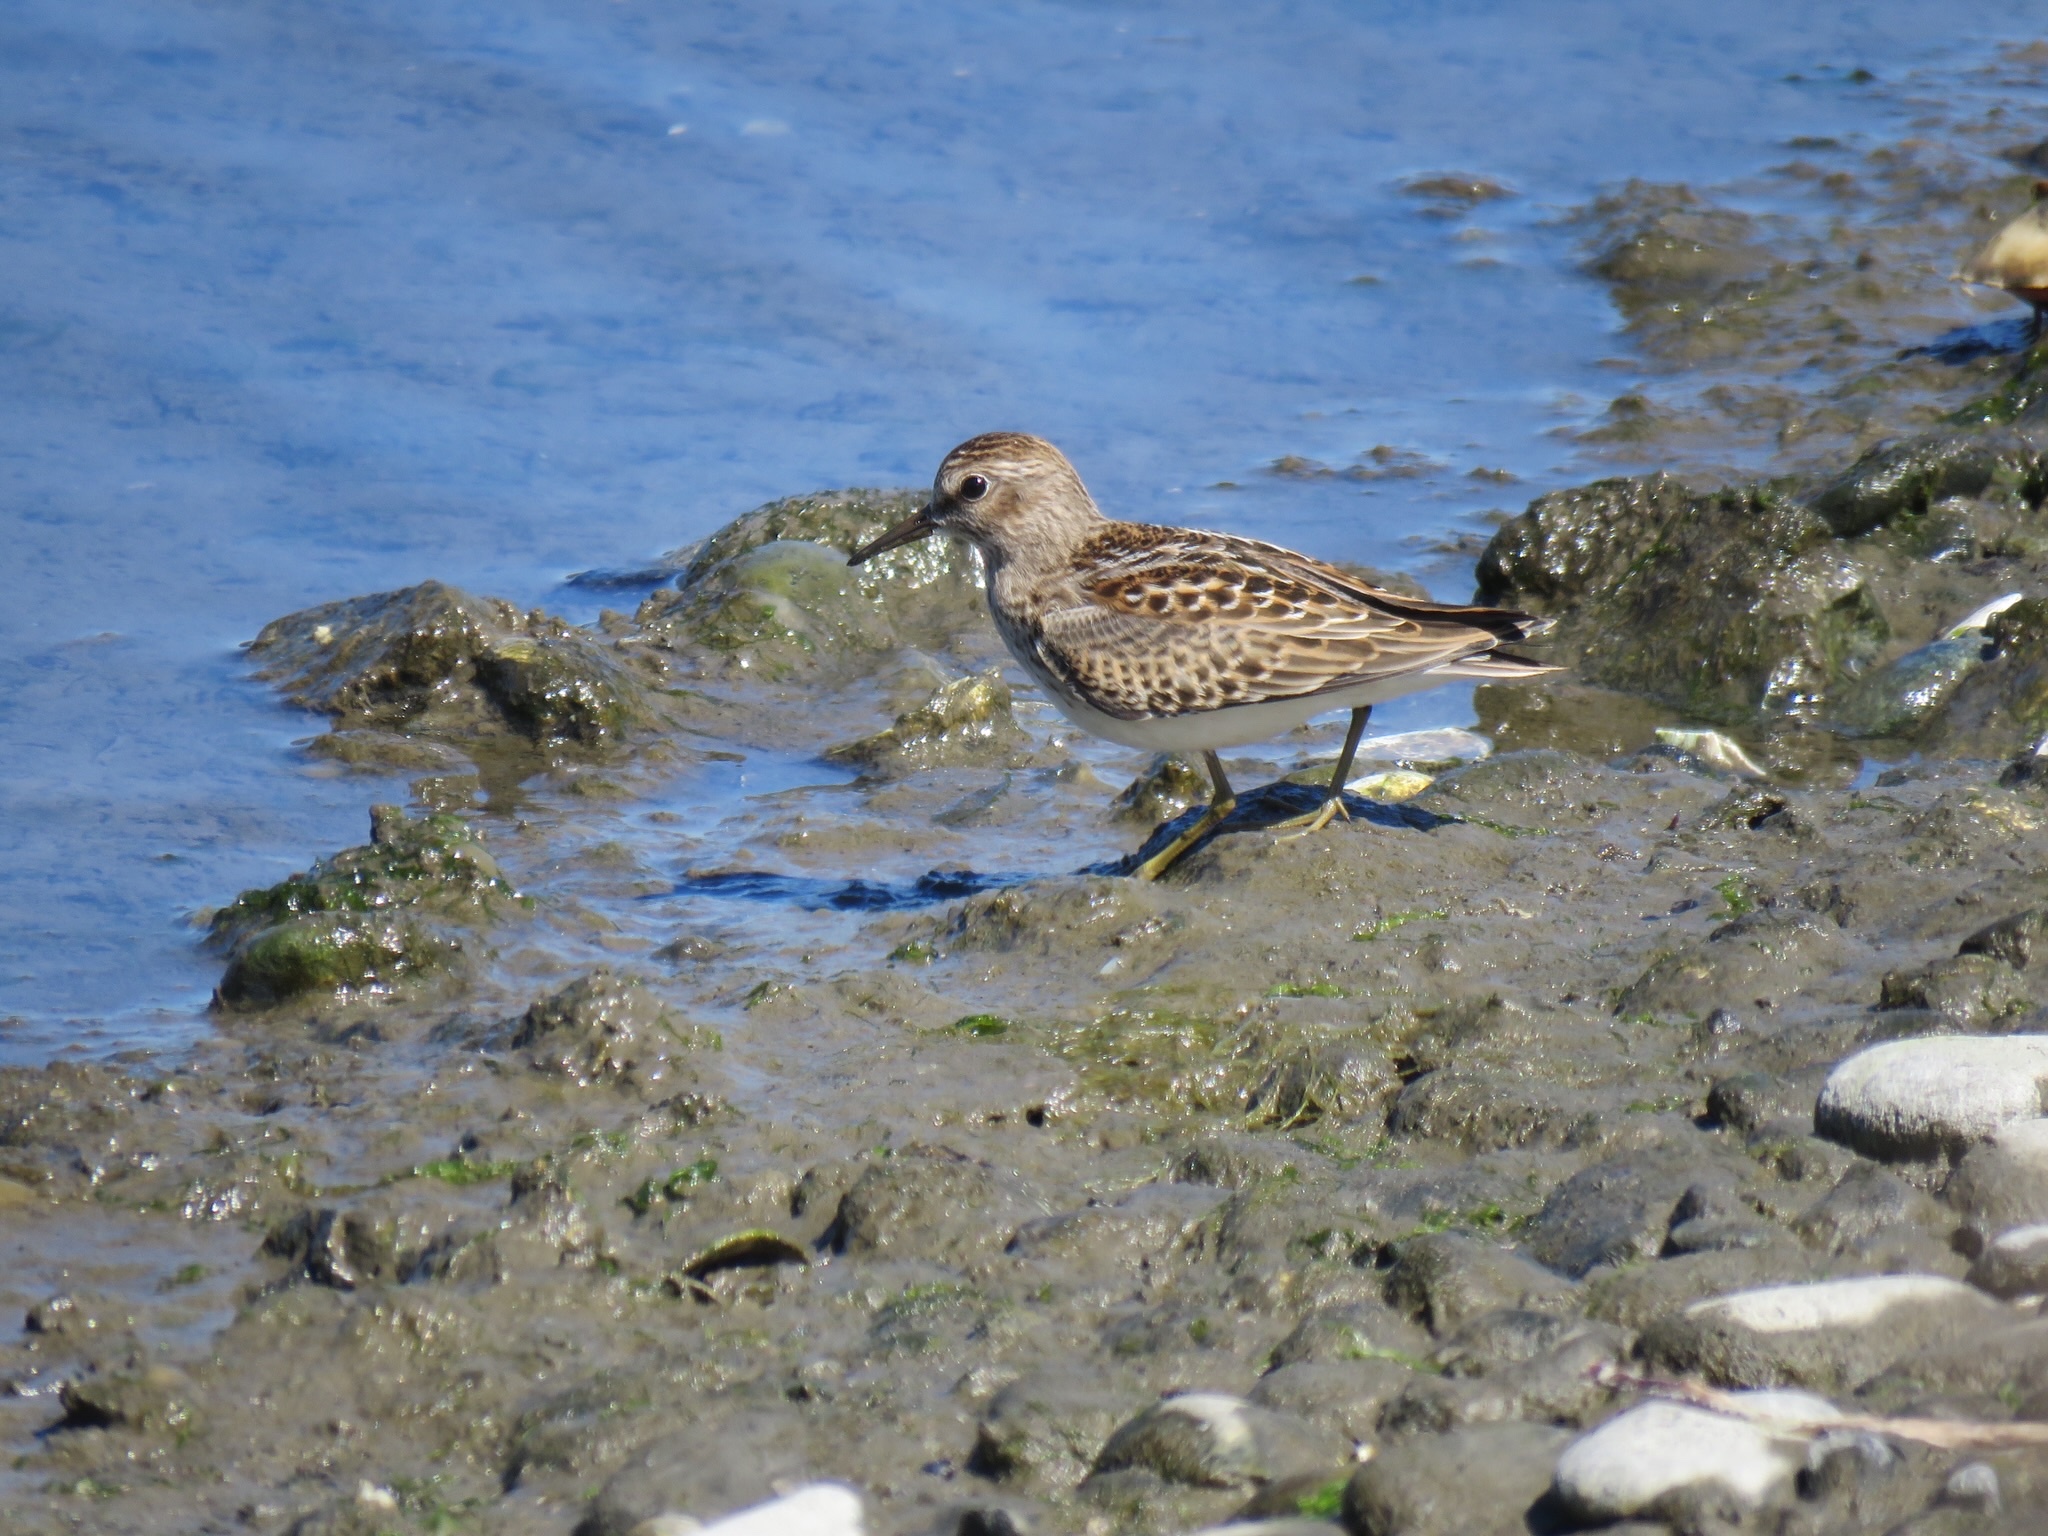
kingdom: Animalia
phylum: Chordata
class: Aves
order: Charadriiformes
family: Scolopacidae
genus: Calidris
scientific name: Calidris minutilla
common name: Least sandpiper
